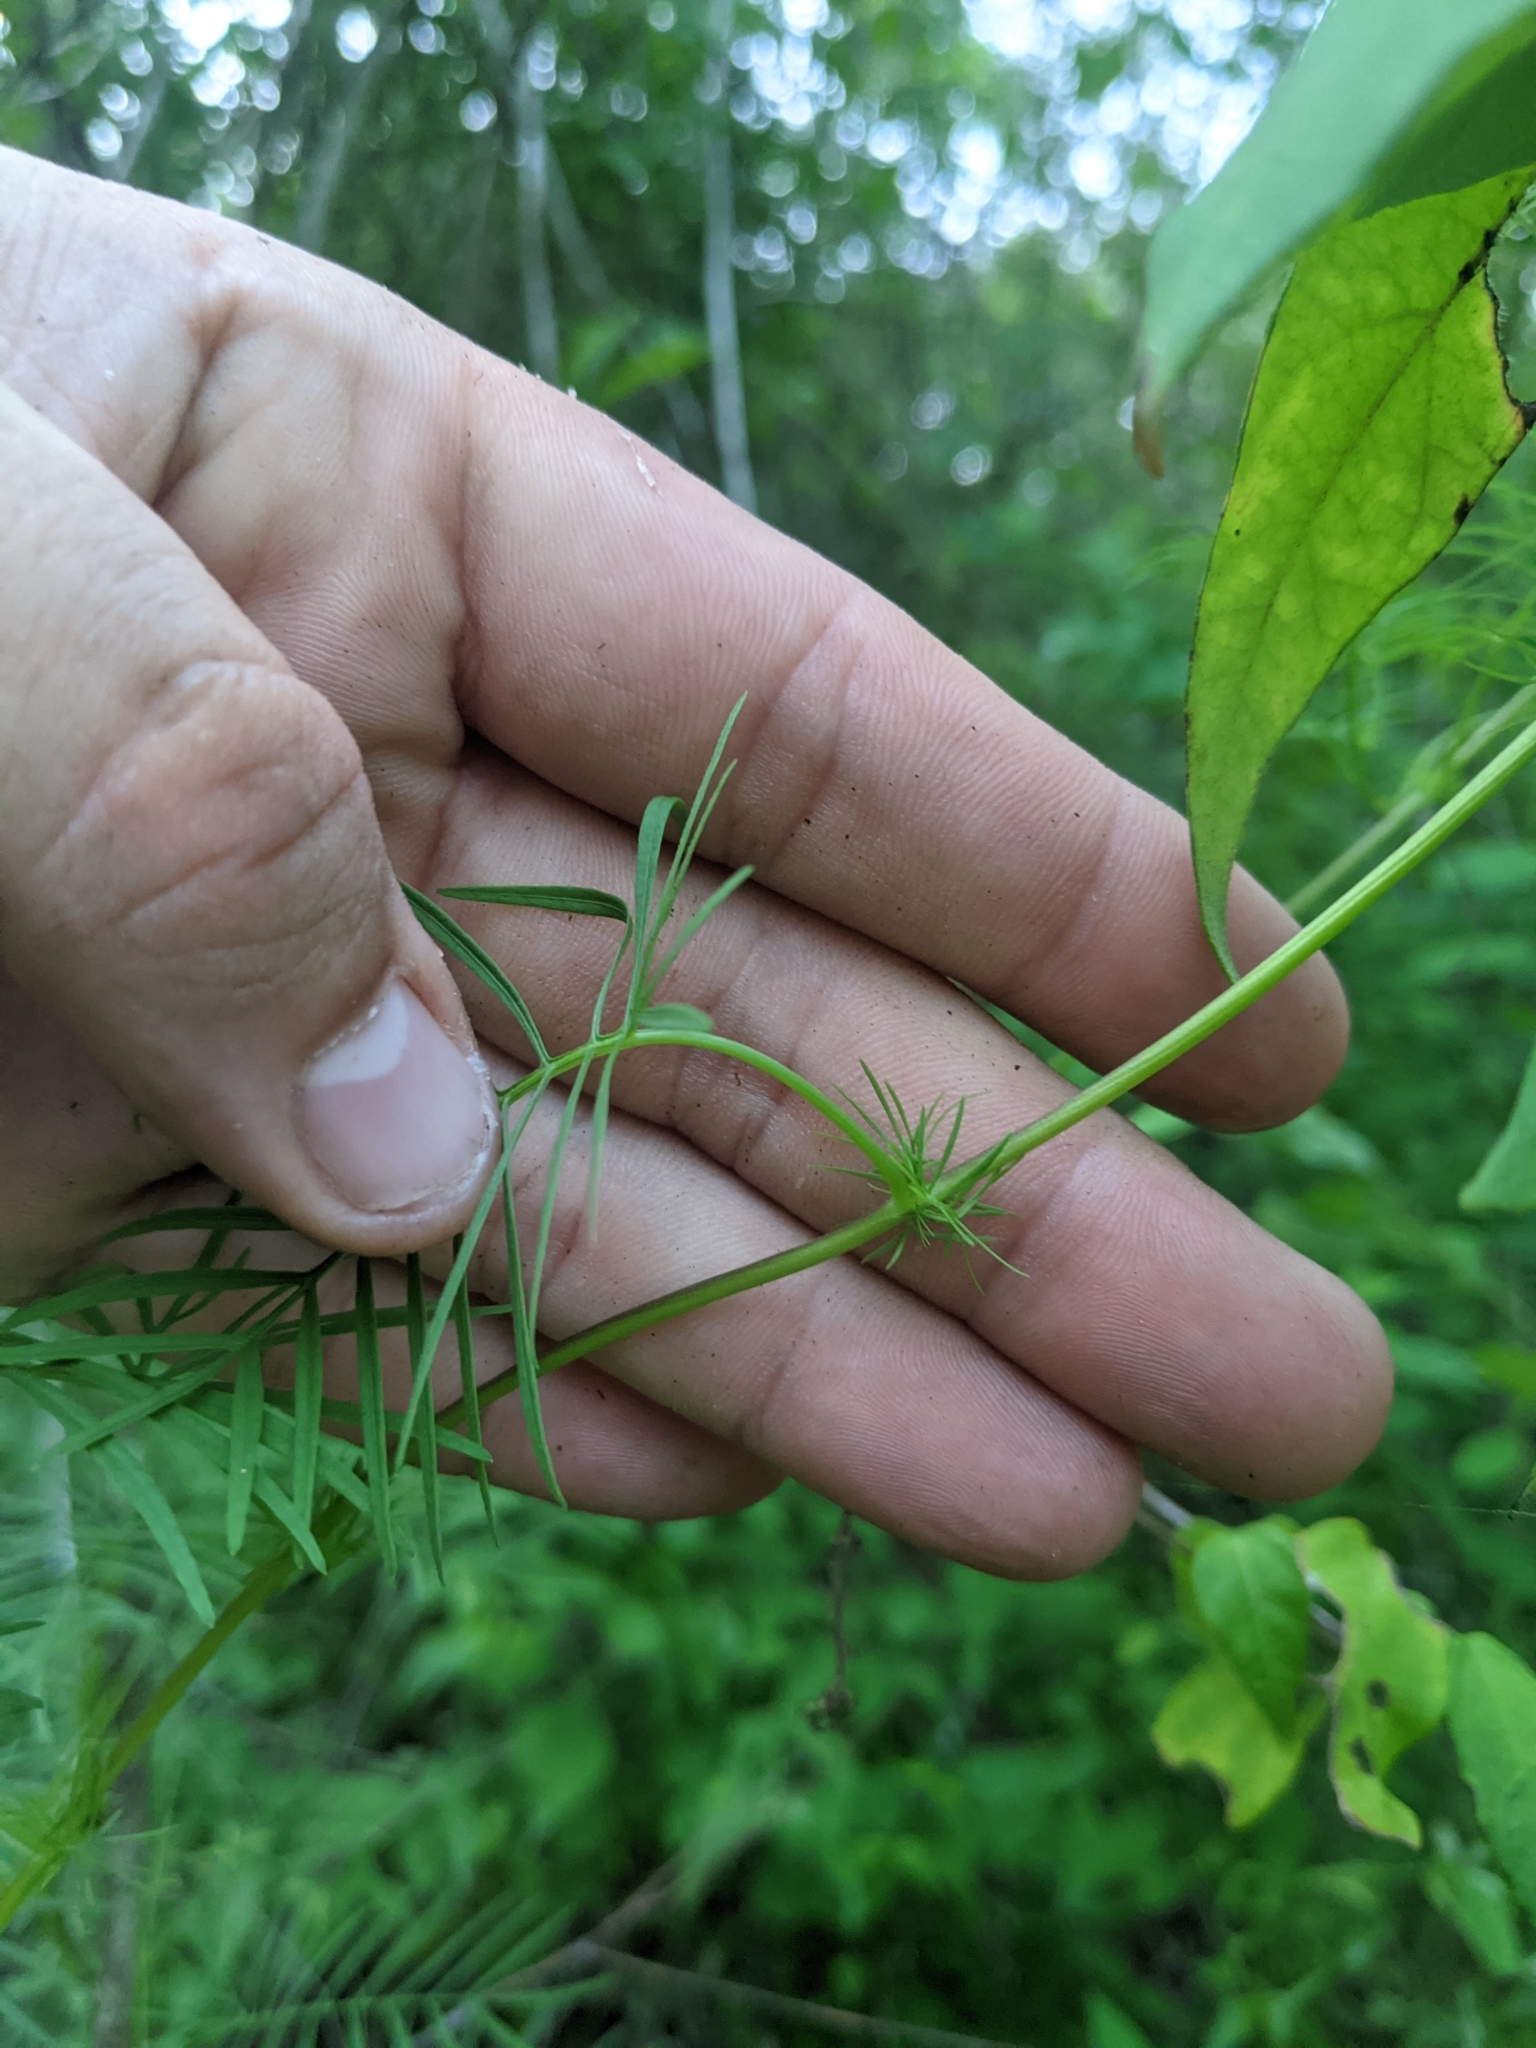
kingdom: Plantae
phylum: Tracheophyta
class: Magnoliopsida
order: Solanales
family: Convolvulaceae
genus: Ipomoea
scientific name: Ipomoea quamoclit
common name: Cypress vine
